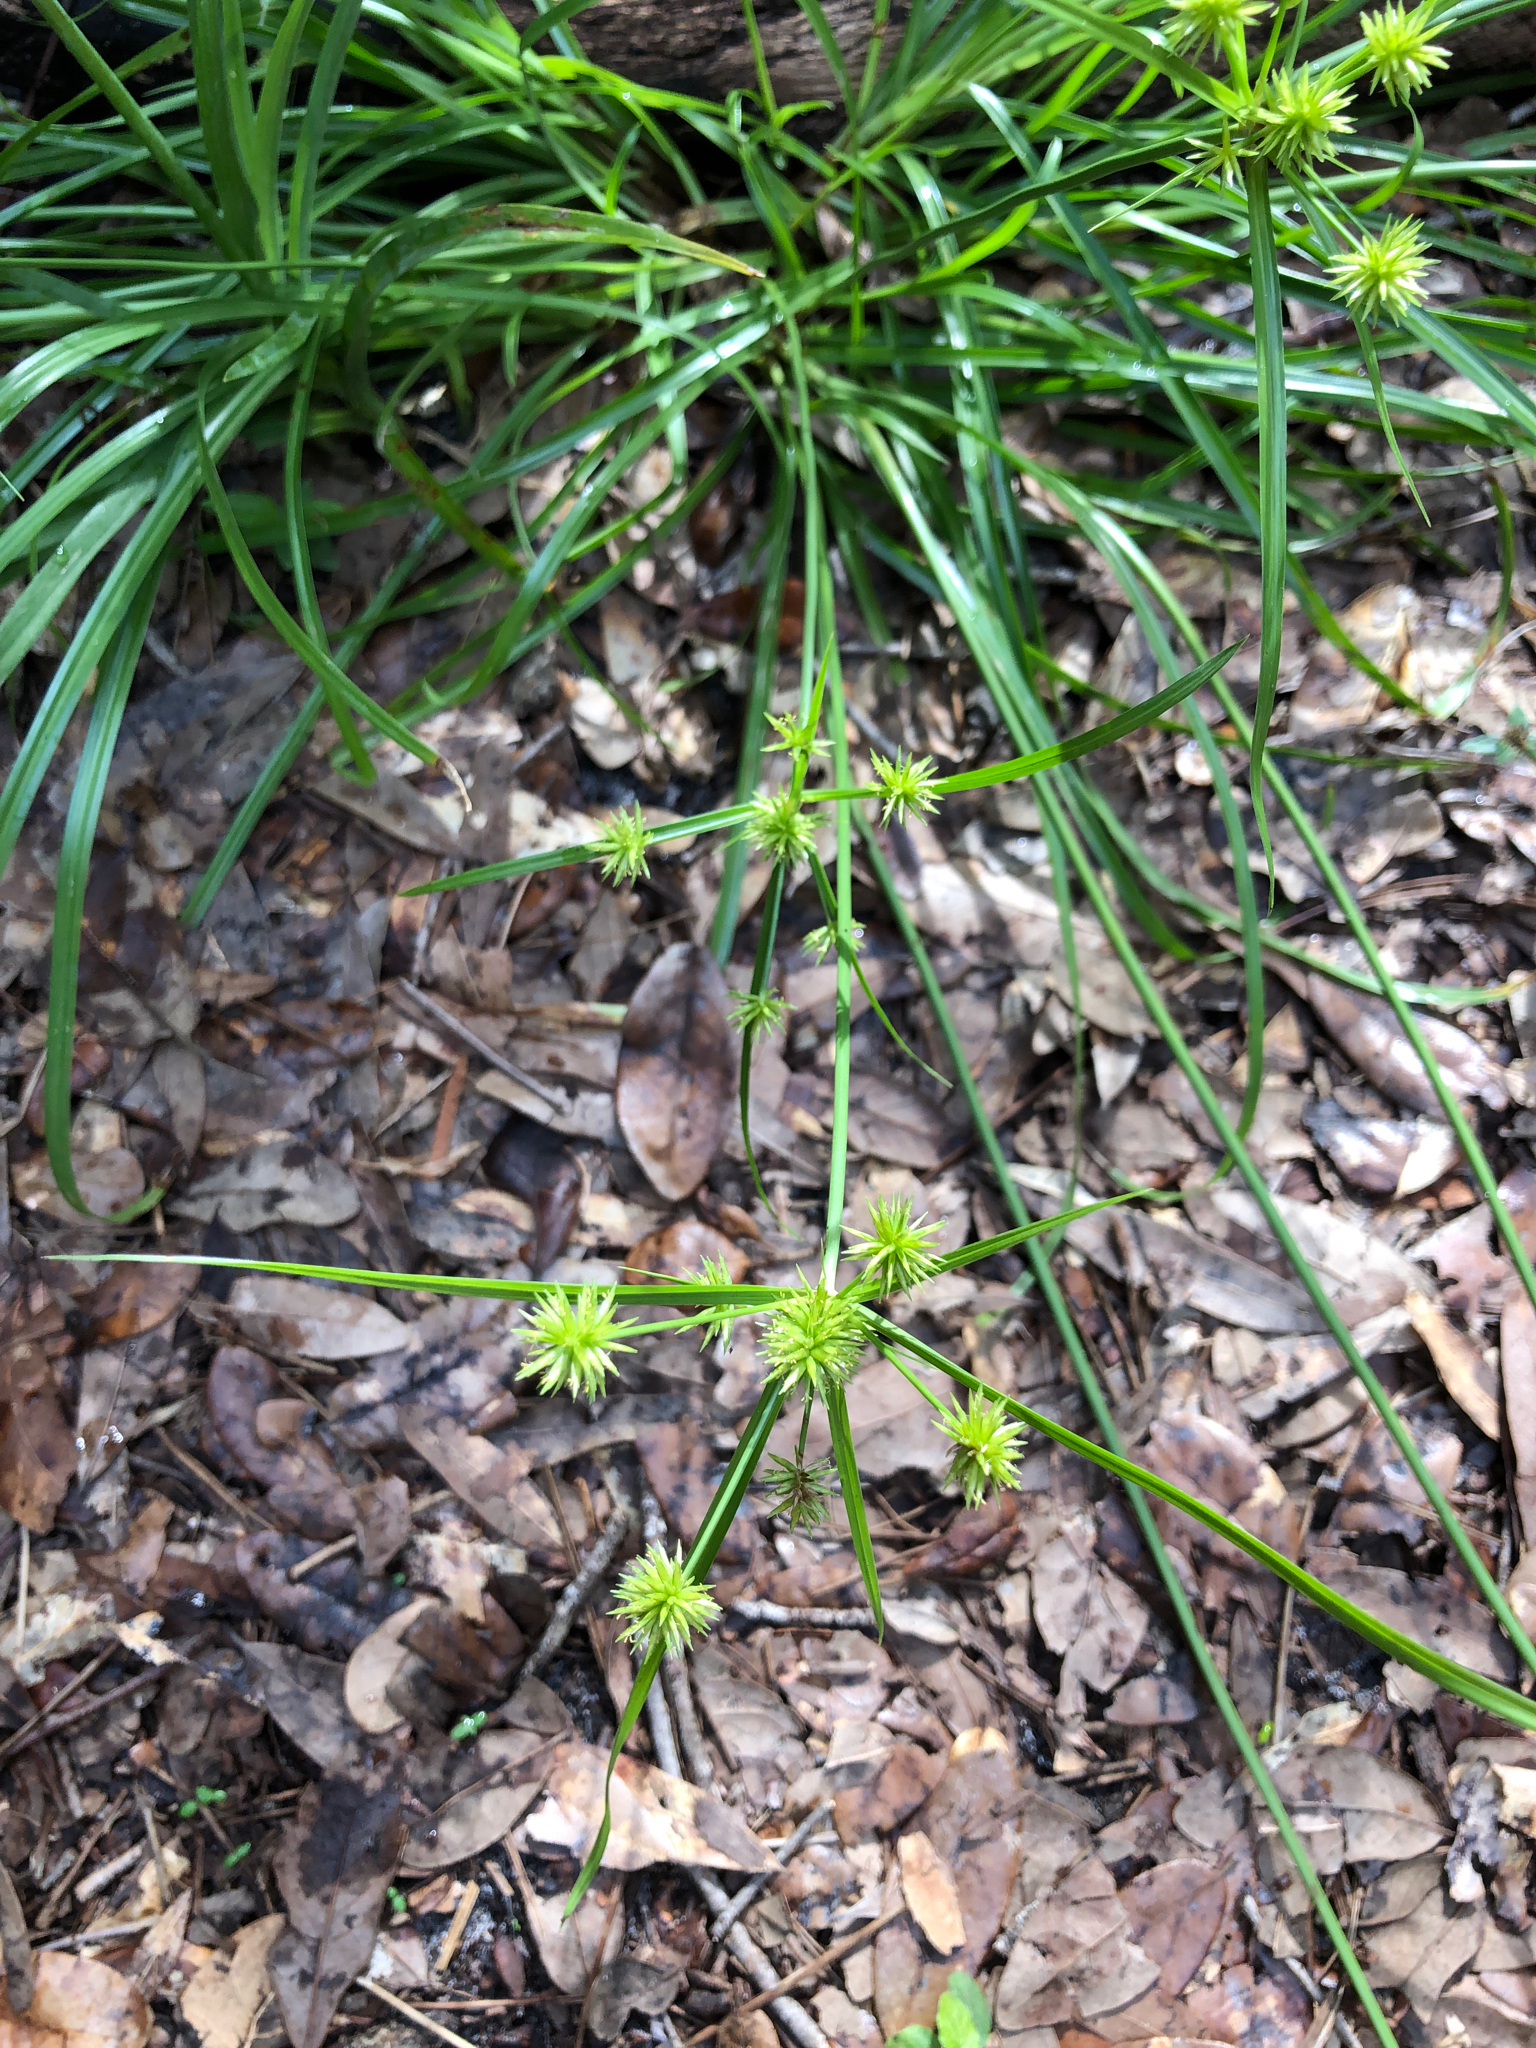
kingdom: Plantae
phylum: Tracheophyta
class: Liliopsida
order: Poales
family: Cyperaceae
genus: Cyperus
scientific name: Cyperus croceus
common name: Baldwin's flatsedge
